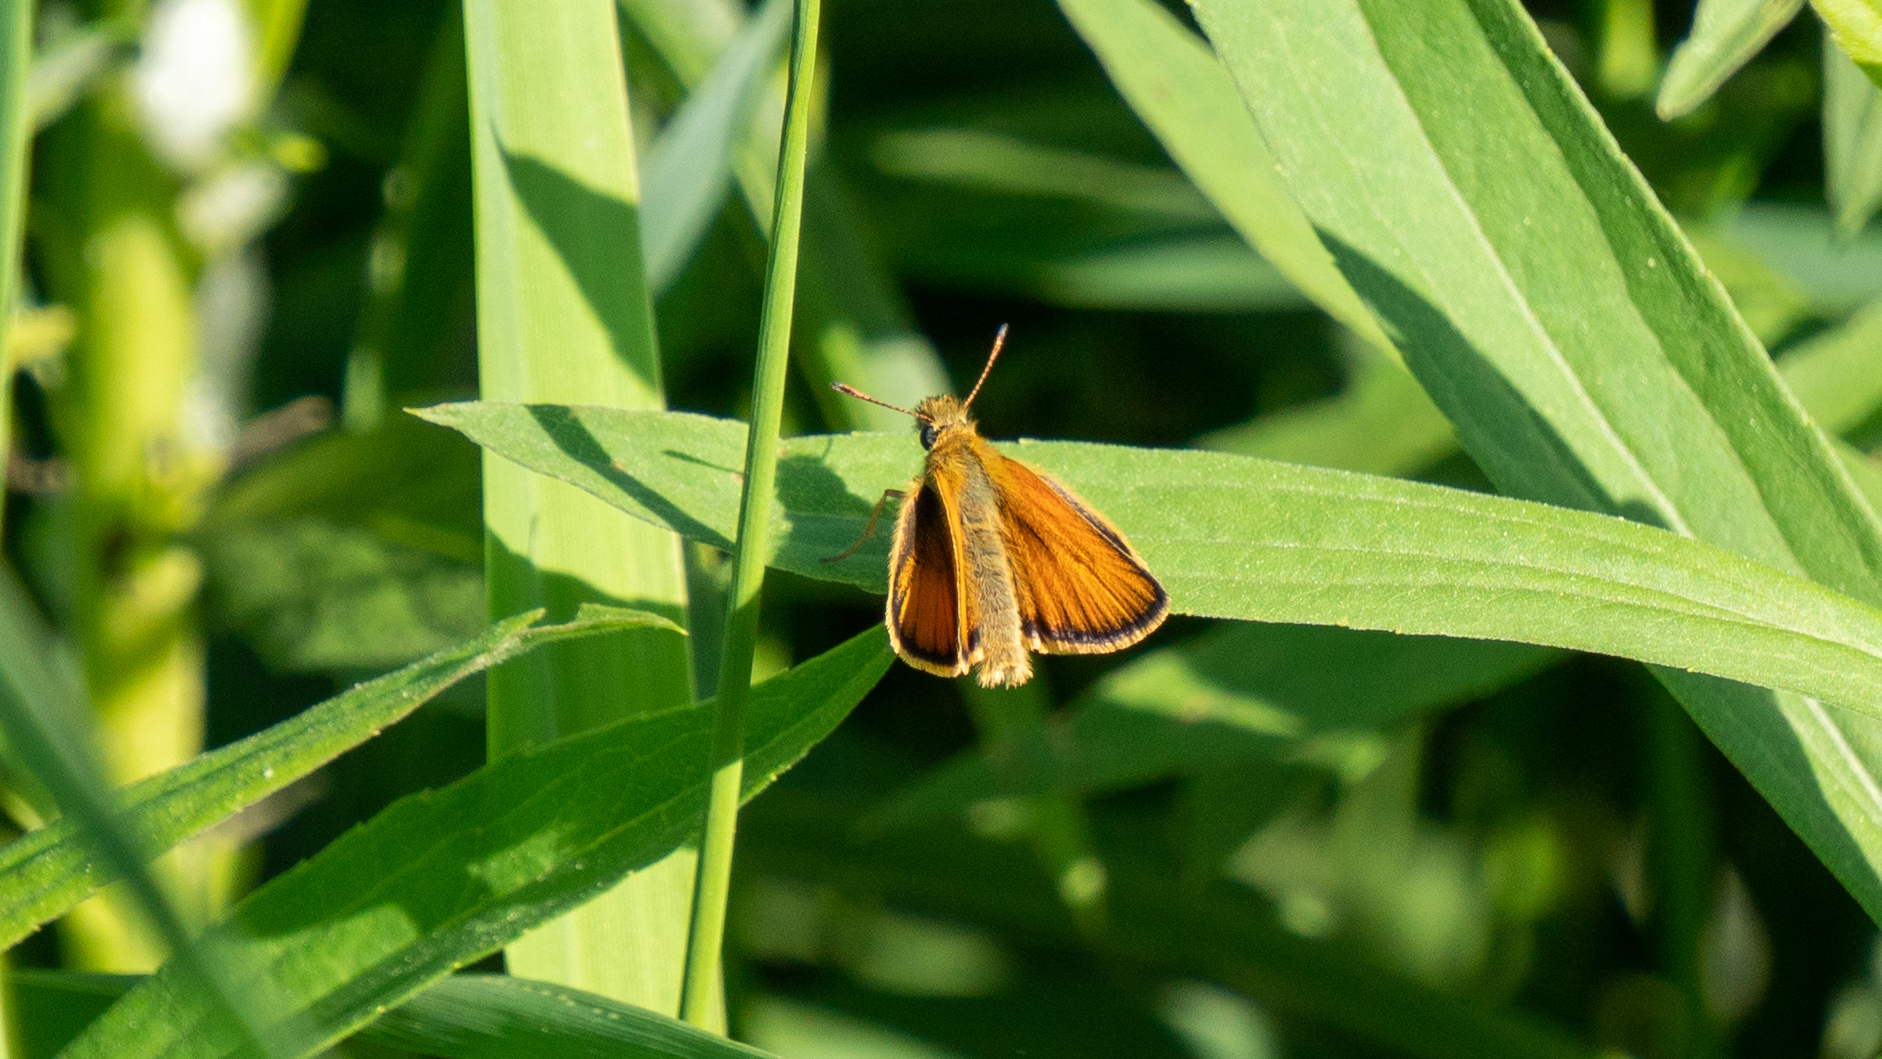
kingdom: Animalia
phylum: Arthropoda
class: Insecta
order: Lepidoptera
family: Hesperiidae
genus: Thymelicus
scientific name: Thymelicus lineola
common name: Essex skipper
